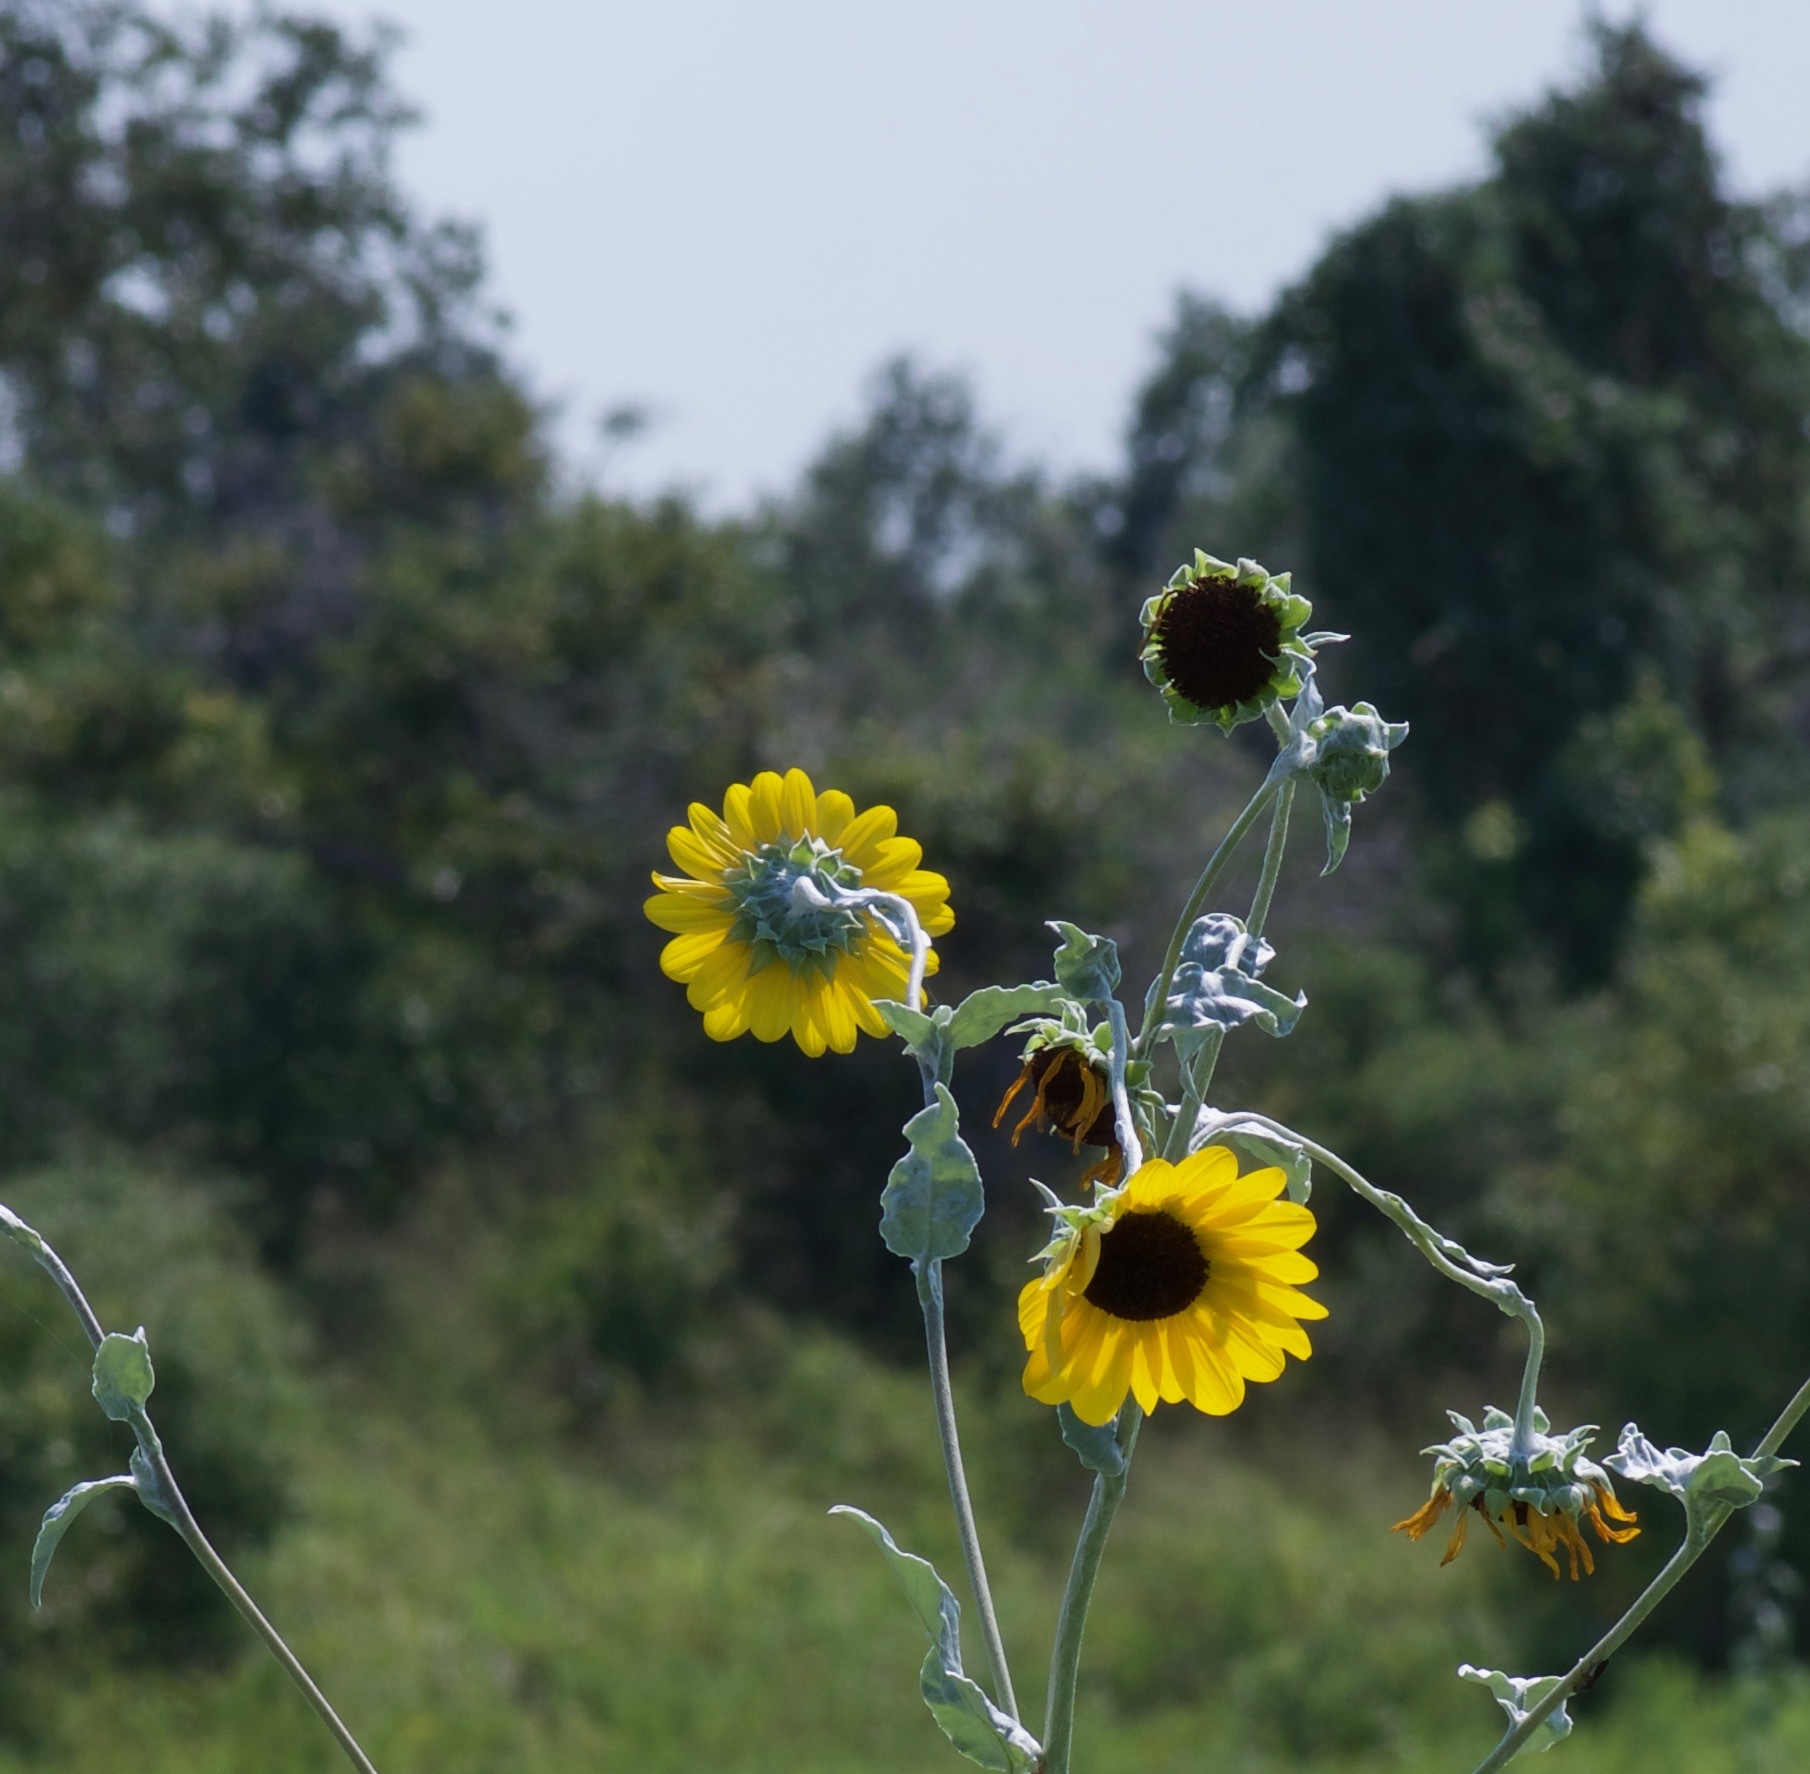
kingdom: Plantae
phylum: Tracheophyta
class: Magnoliopsida
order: Asterales
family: Asteraceae
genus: Helianthus
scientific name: Helianthus argophyllus
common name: Silverleaf sunflower
